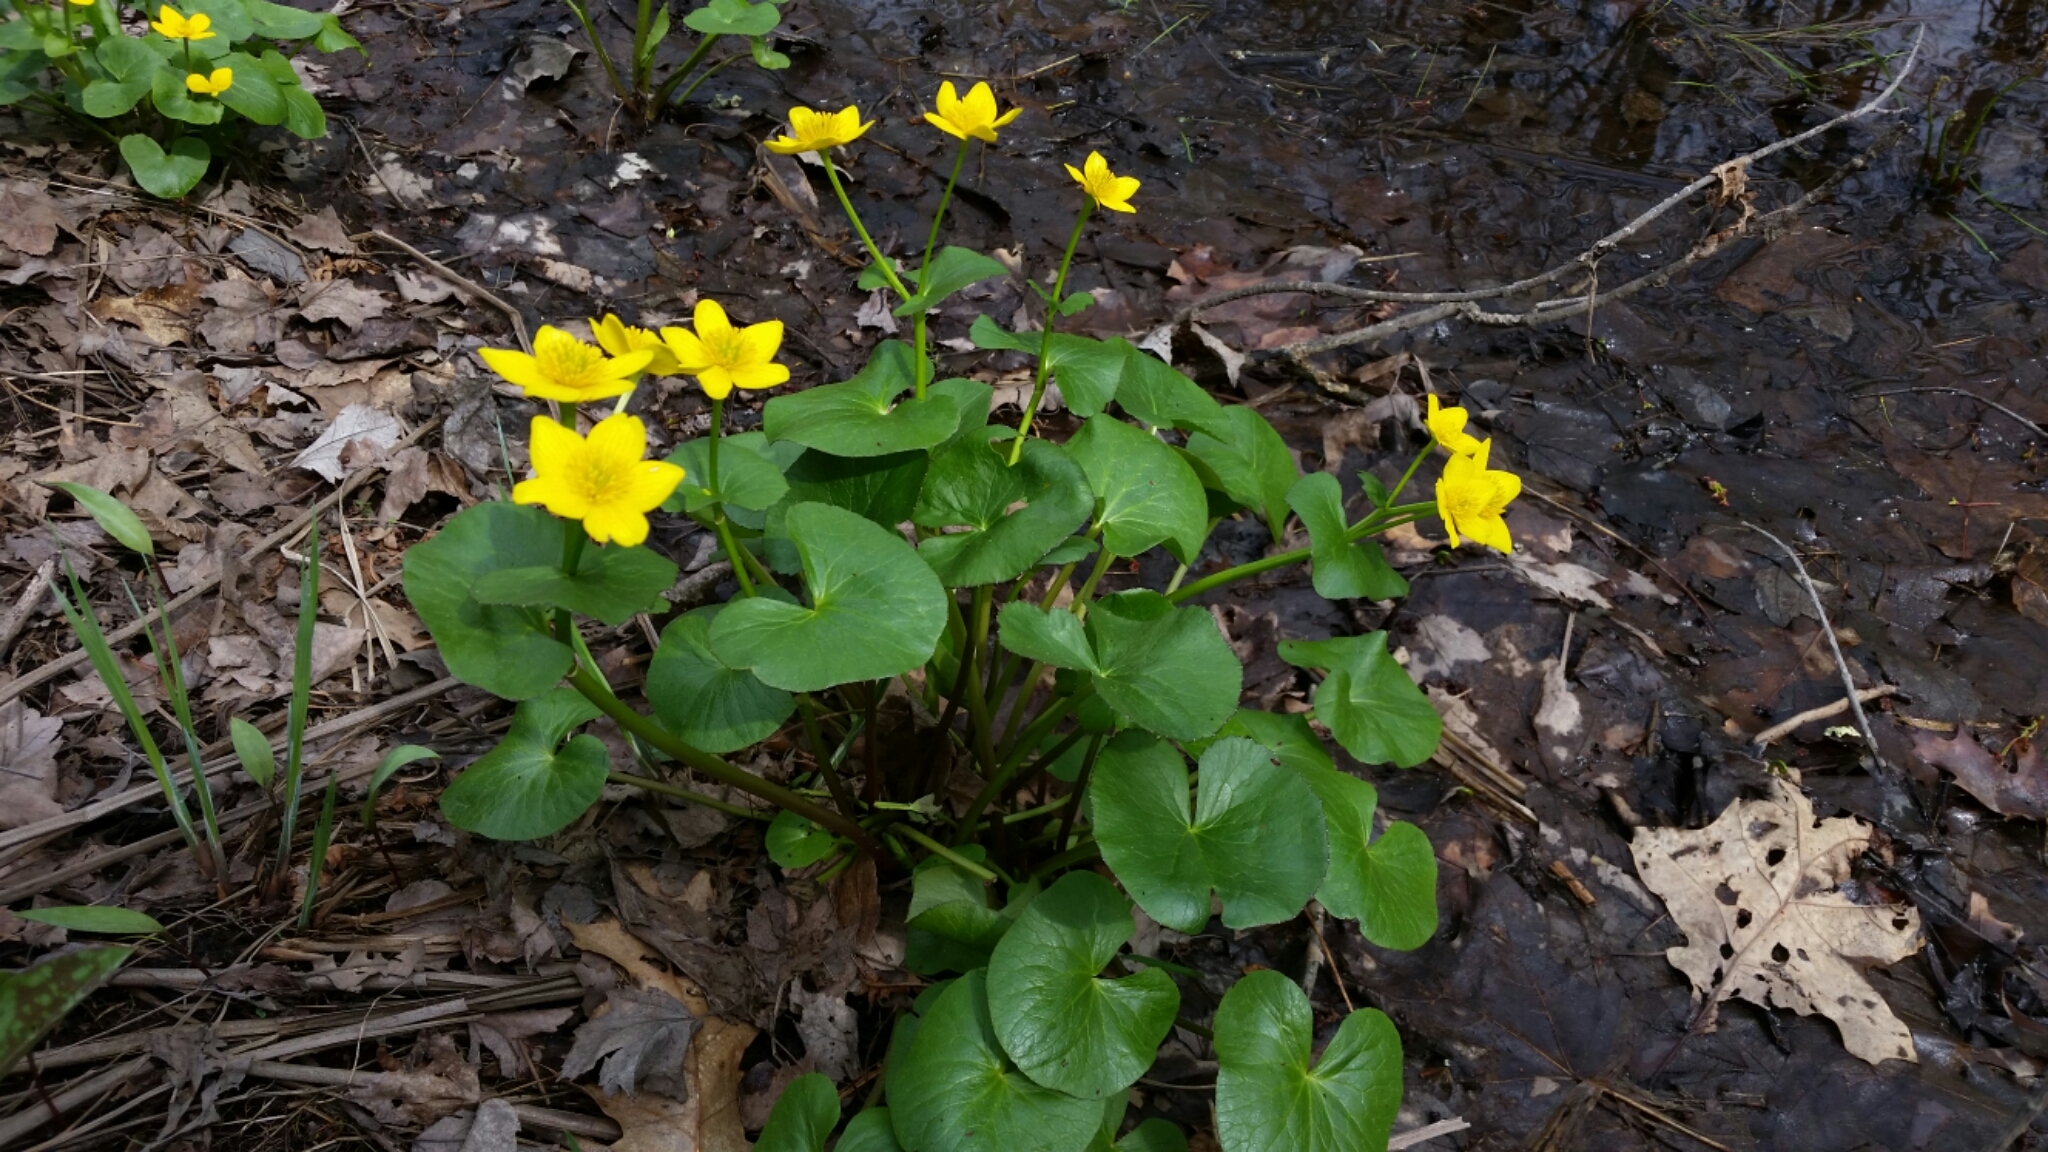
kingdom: Plantae
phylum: Tracheophyta
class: Magnoliopsida
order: Ranunculales
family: Ranunculaceae
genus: Caltha
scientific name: Caltha palustris
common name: Marsh marigold
